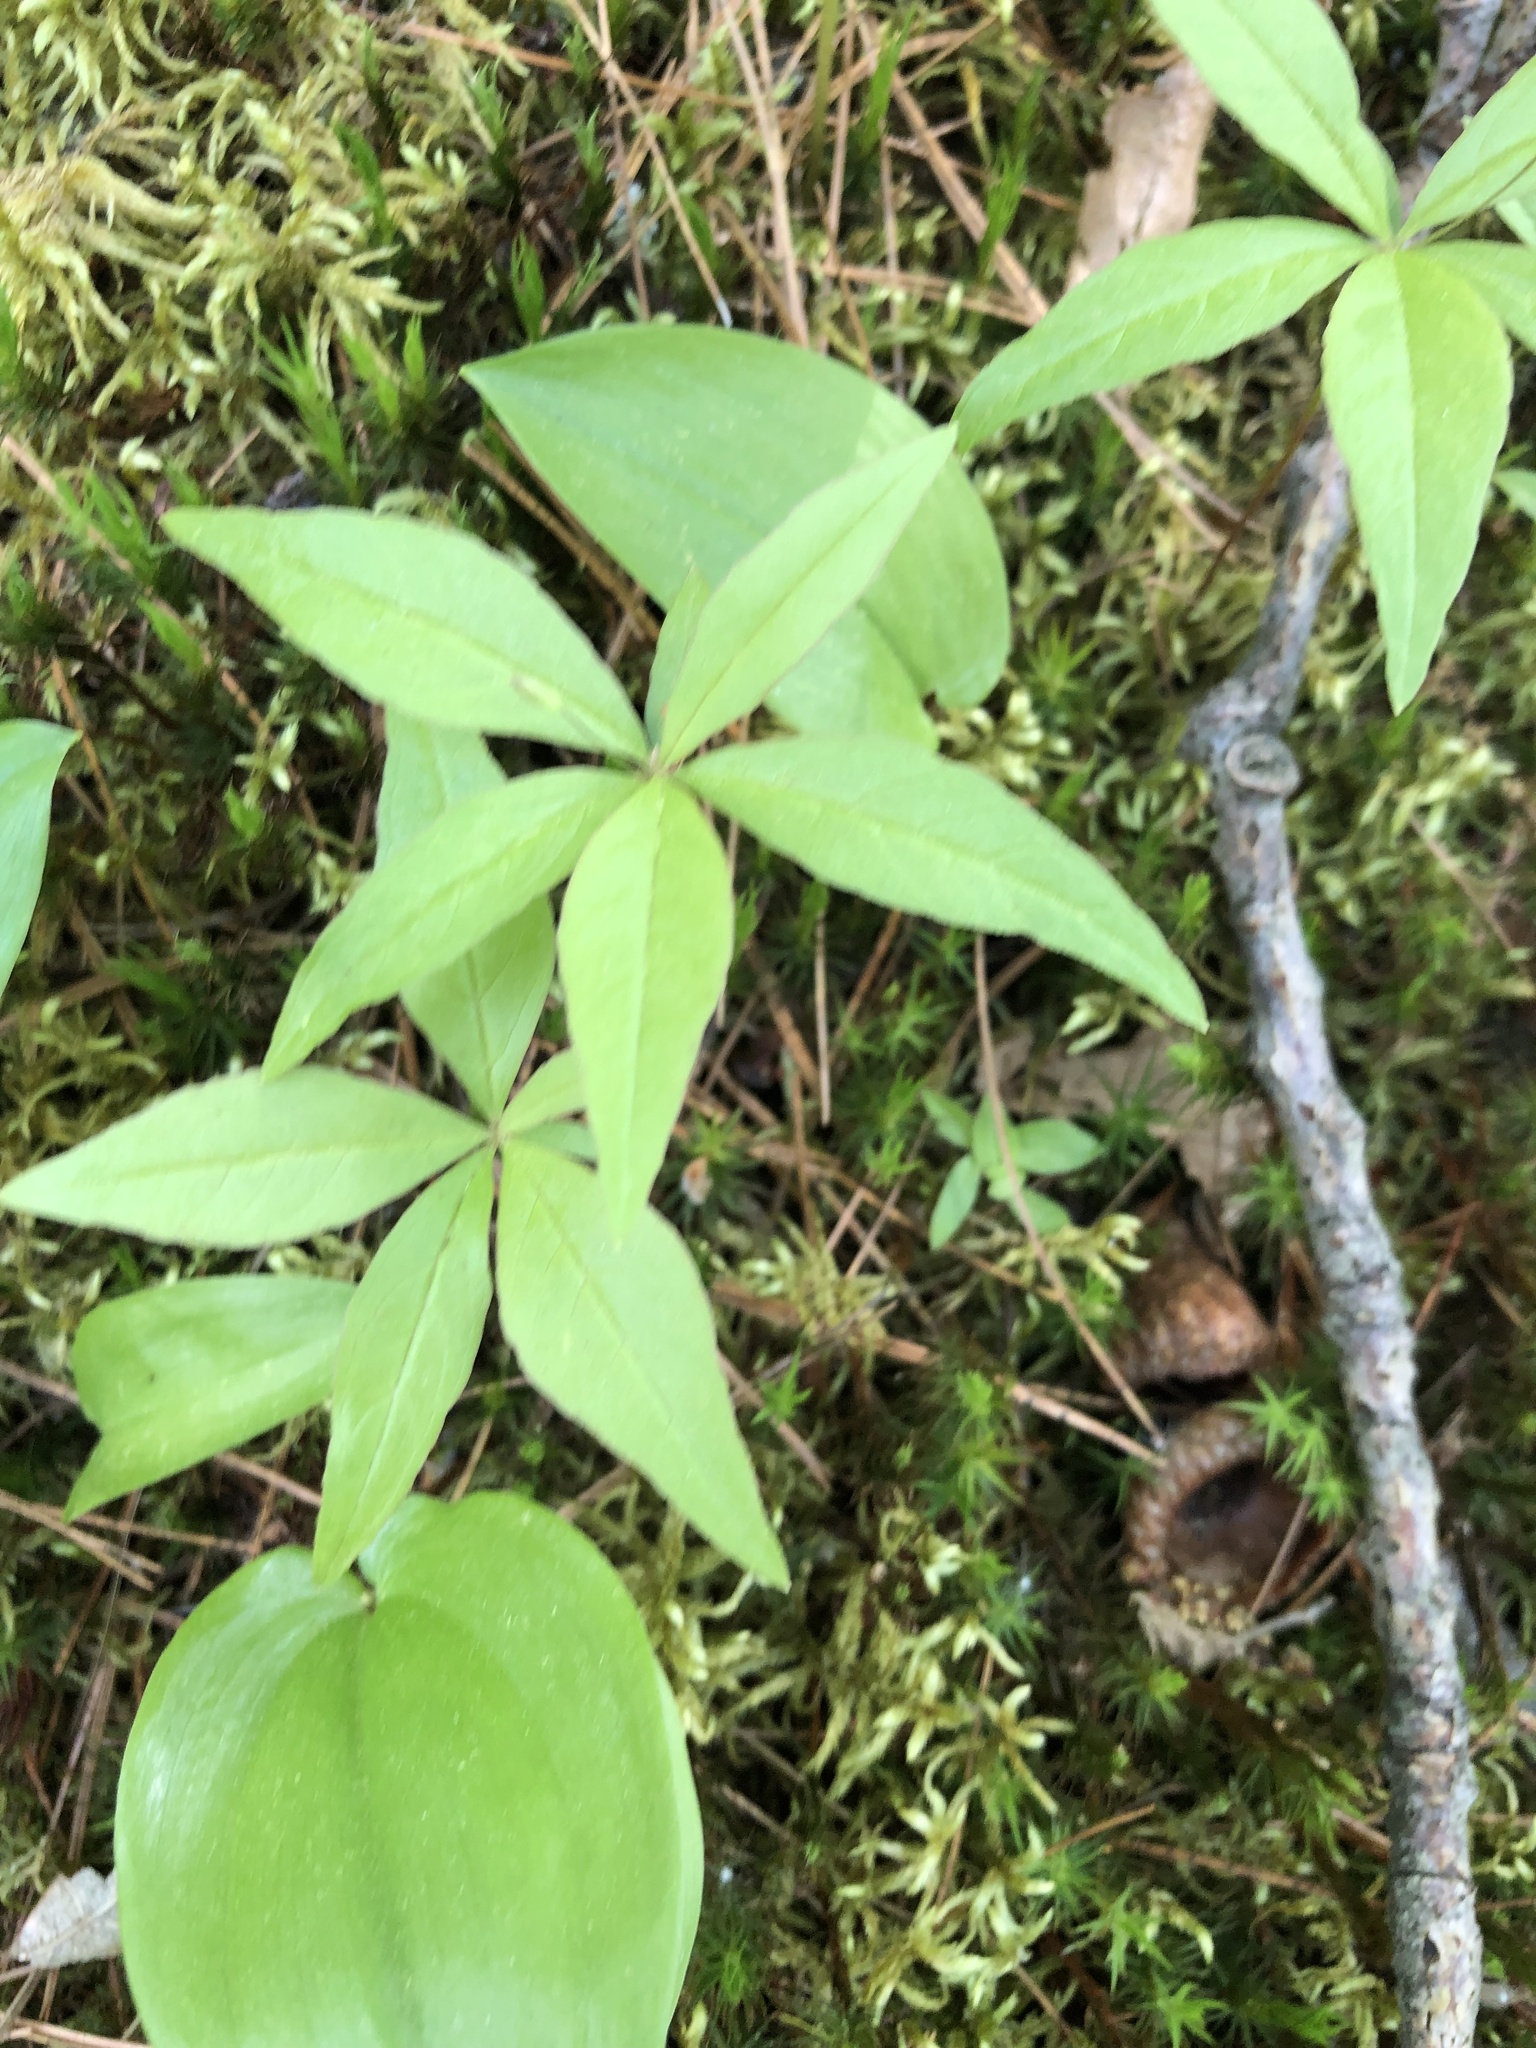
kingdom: Plantae
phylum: Tracheophyta
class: Magnoliopsida
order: Ericales
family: Primulaceae
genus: Lysimachia
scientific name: Lysimachia borealis
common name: American starflower
